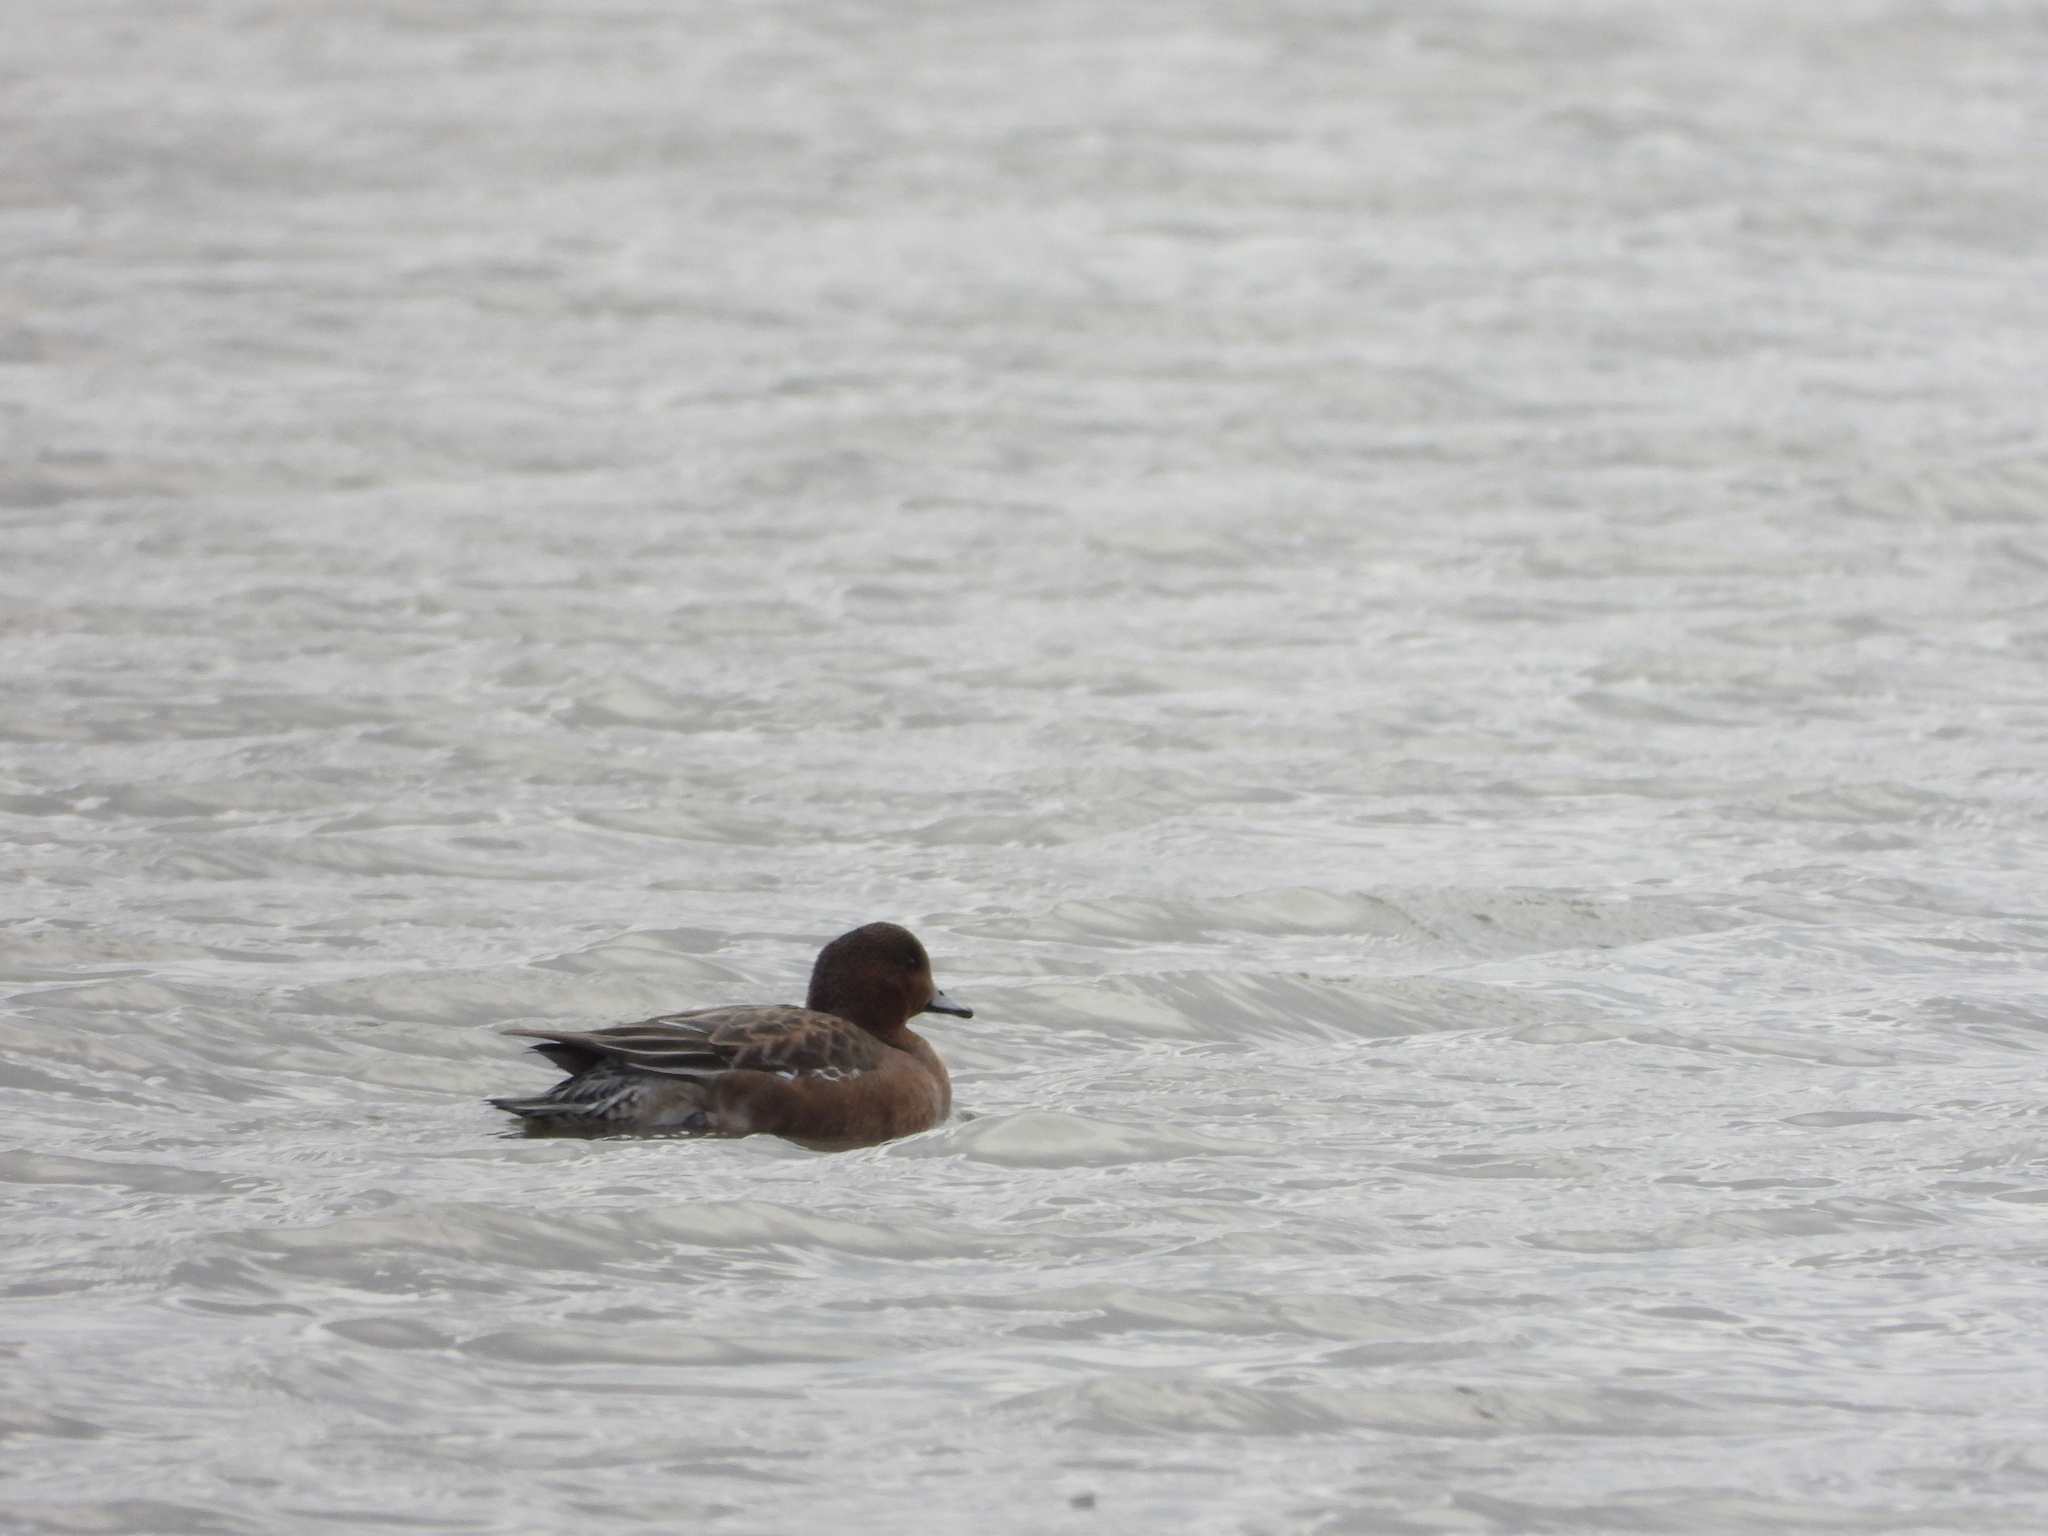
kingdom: Animalia
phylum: Chordata
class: Aves
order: Anseriformes
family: Anatidae
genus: Mareca
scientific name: Mareca penelope
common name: Eurasian wigeon
